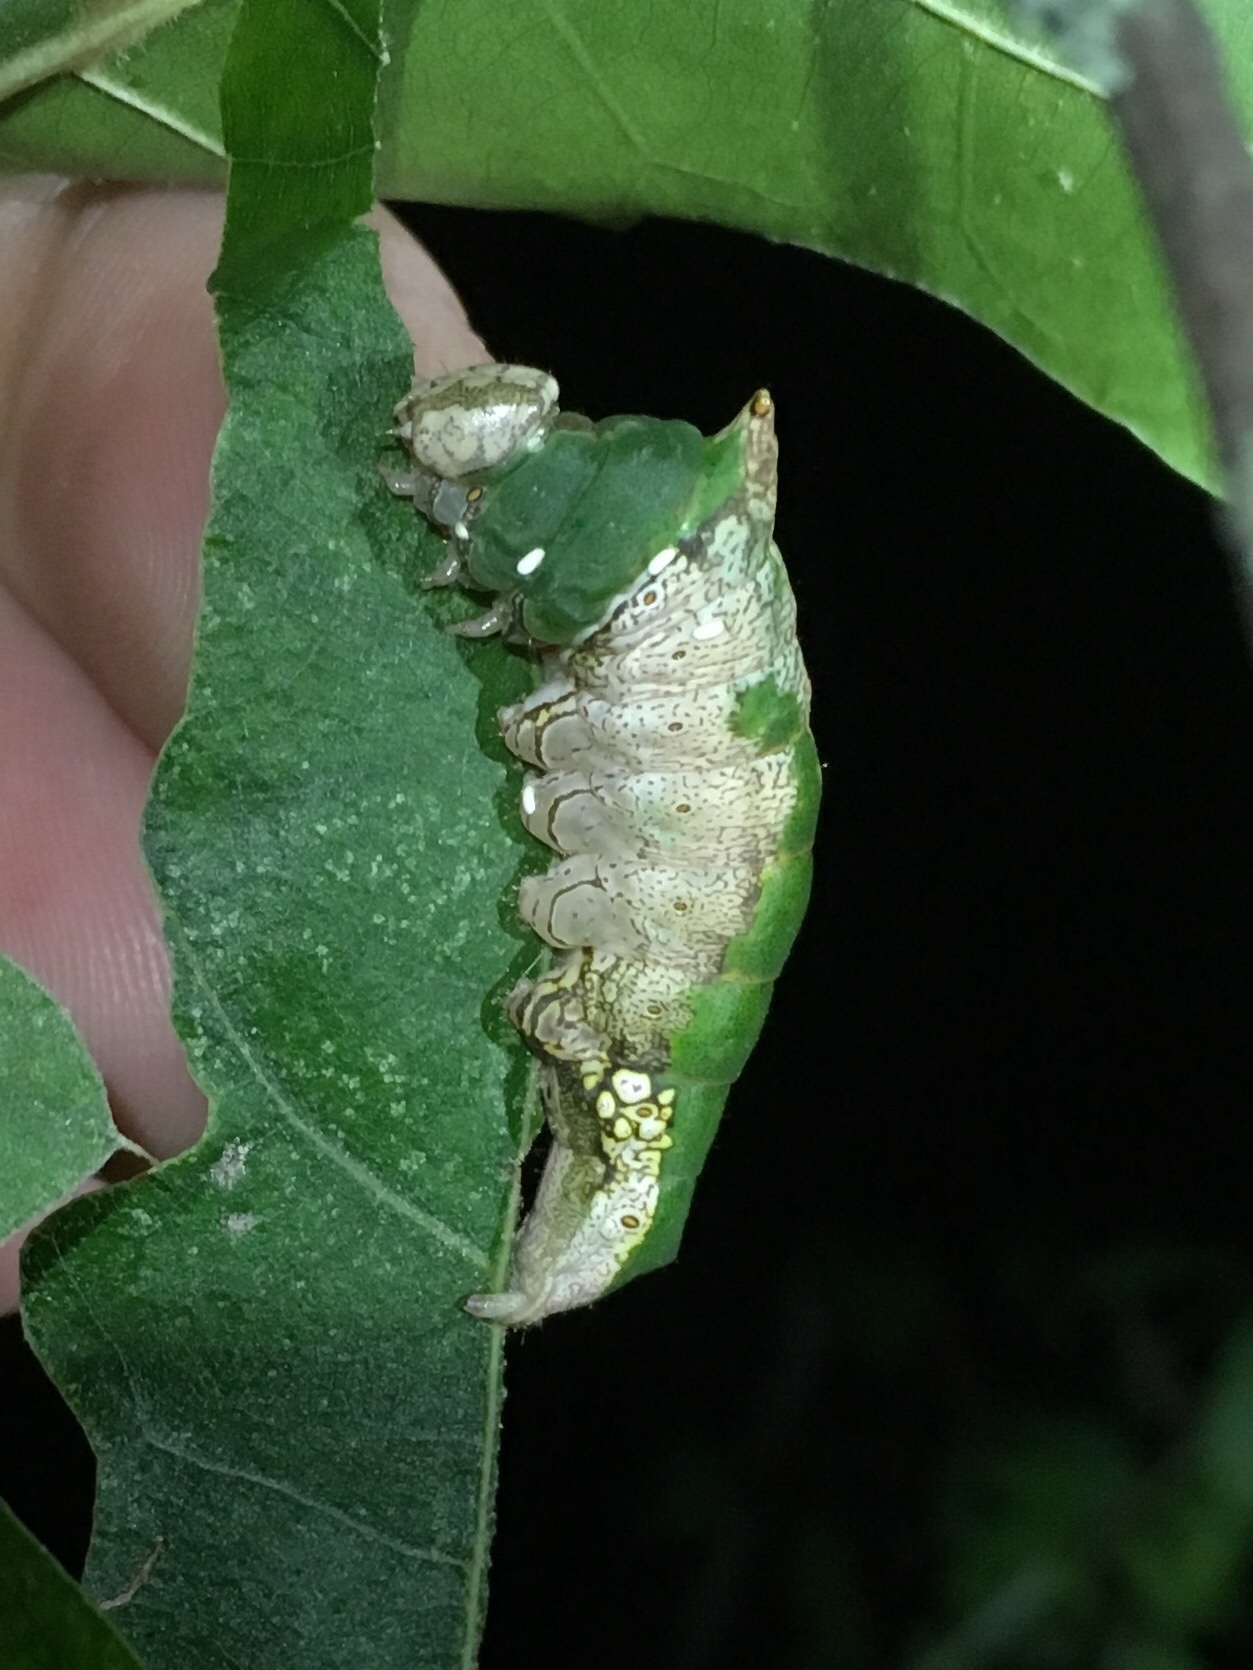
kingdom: Animalia
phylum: Arthropoda
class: Insecta
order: Lepidoptera
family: Notodontidae
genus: Oligocentria
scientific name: Oligocentria Ianassa lignicolor
